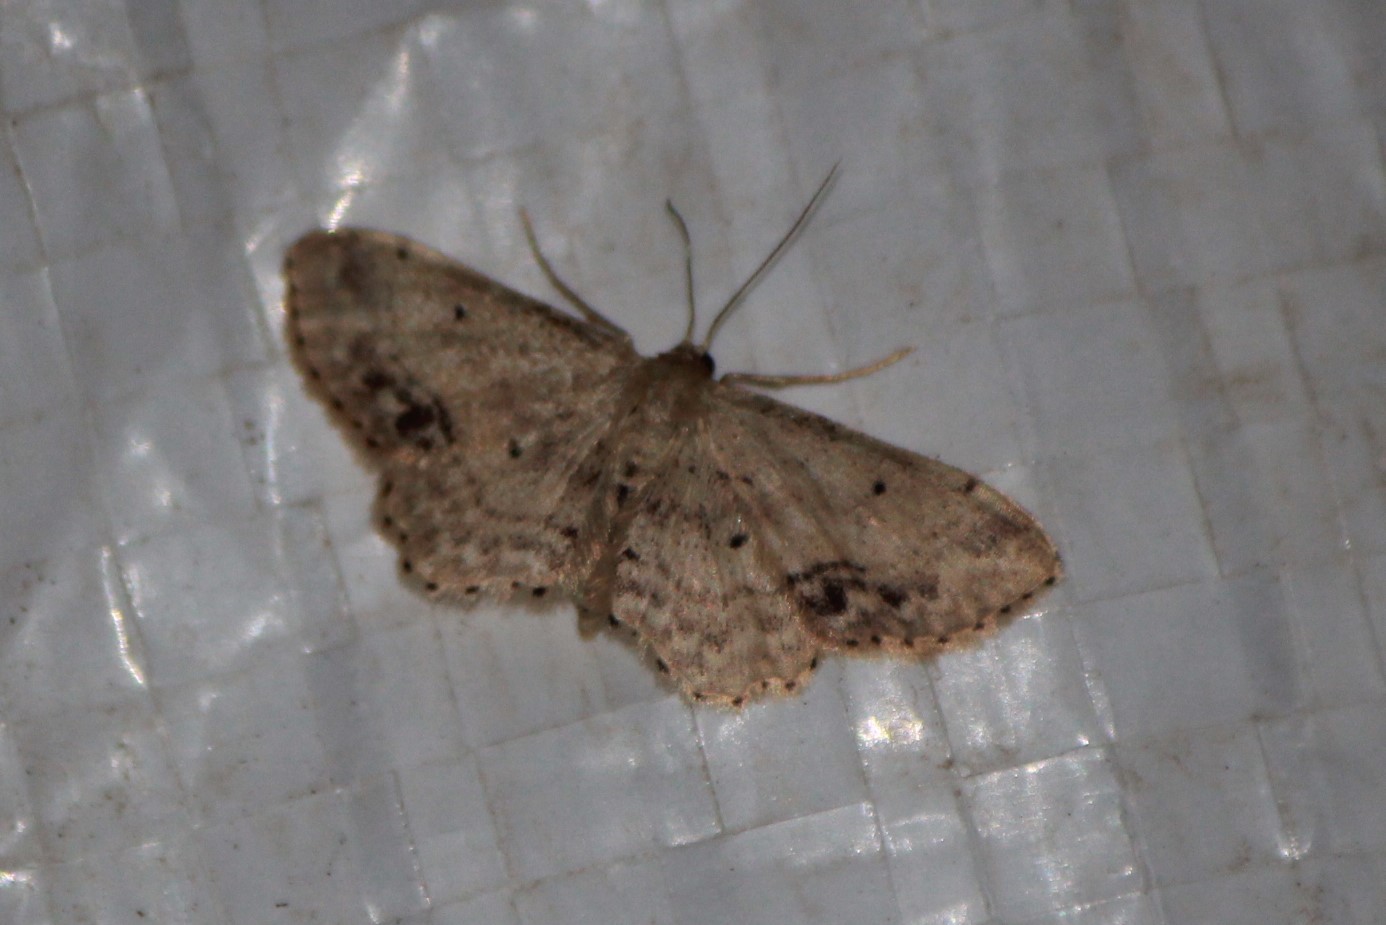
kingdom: Animalia
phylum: Arthropoda
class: Insecta
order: Lepidoptera
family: Geometridae
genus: Idaea
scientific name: Idaea dimidiata
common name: Single-dotted wave
